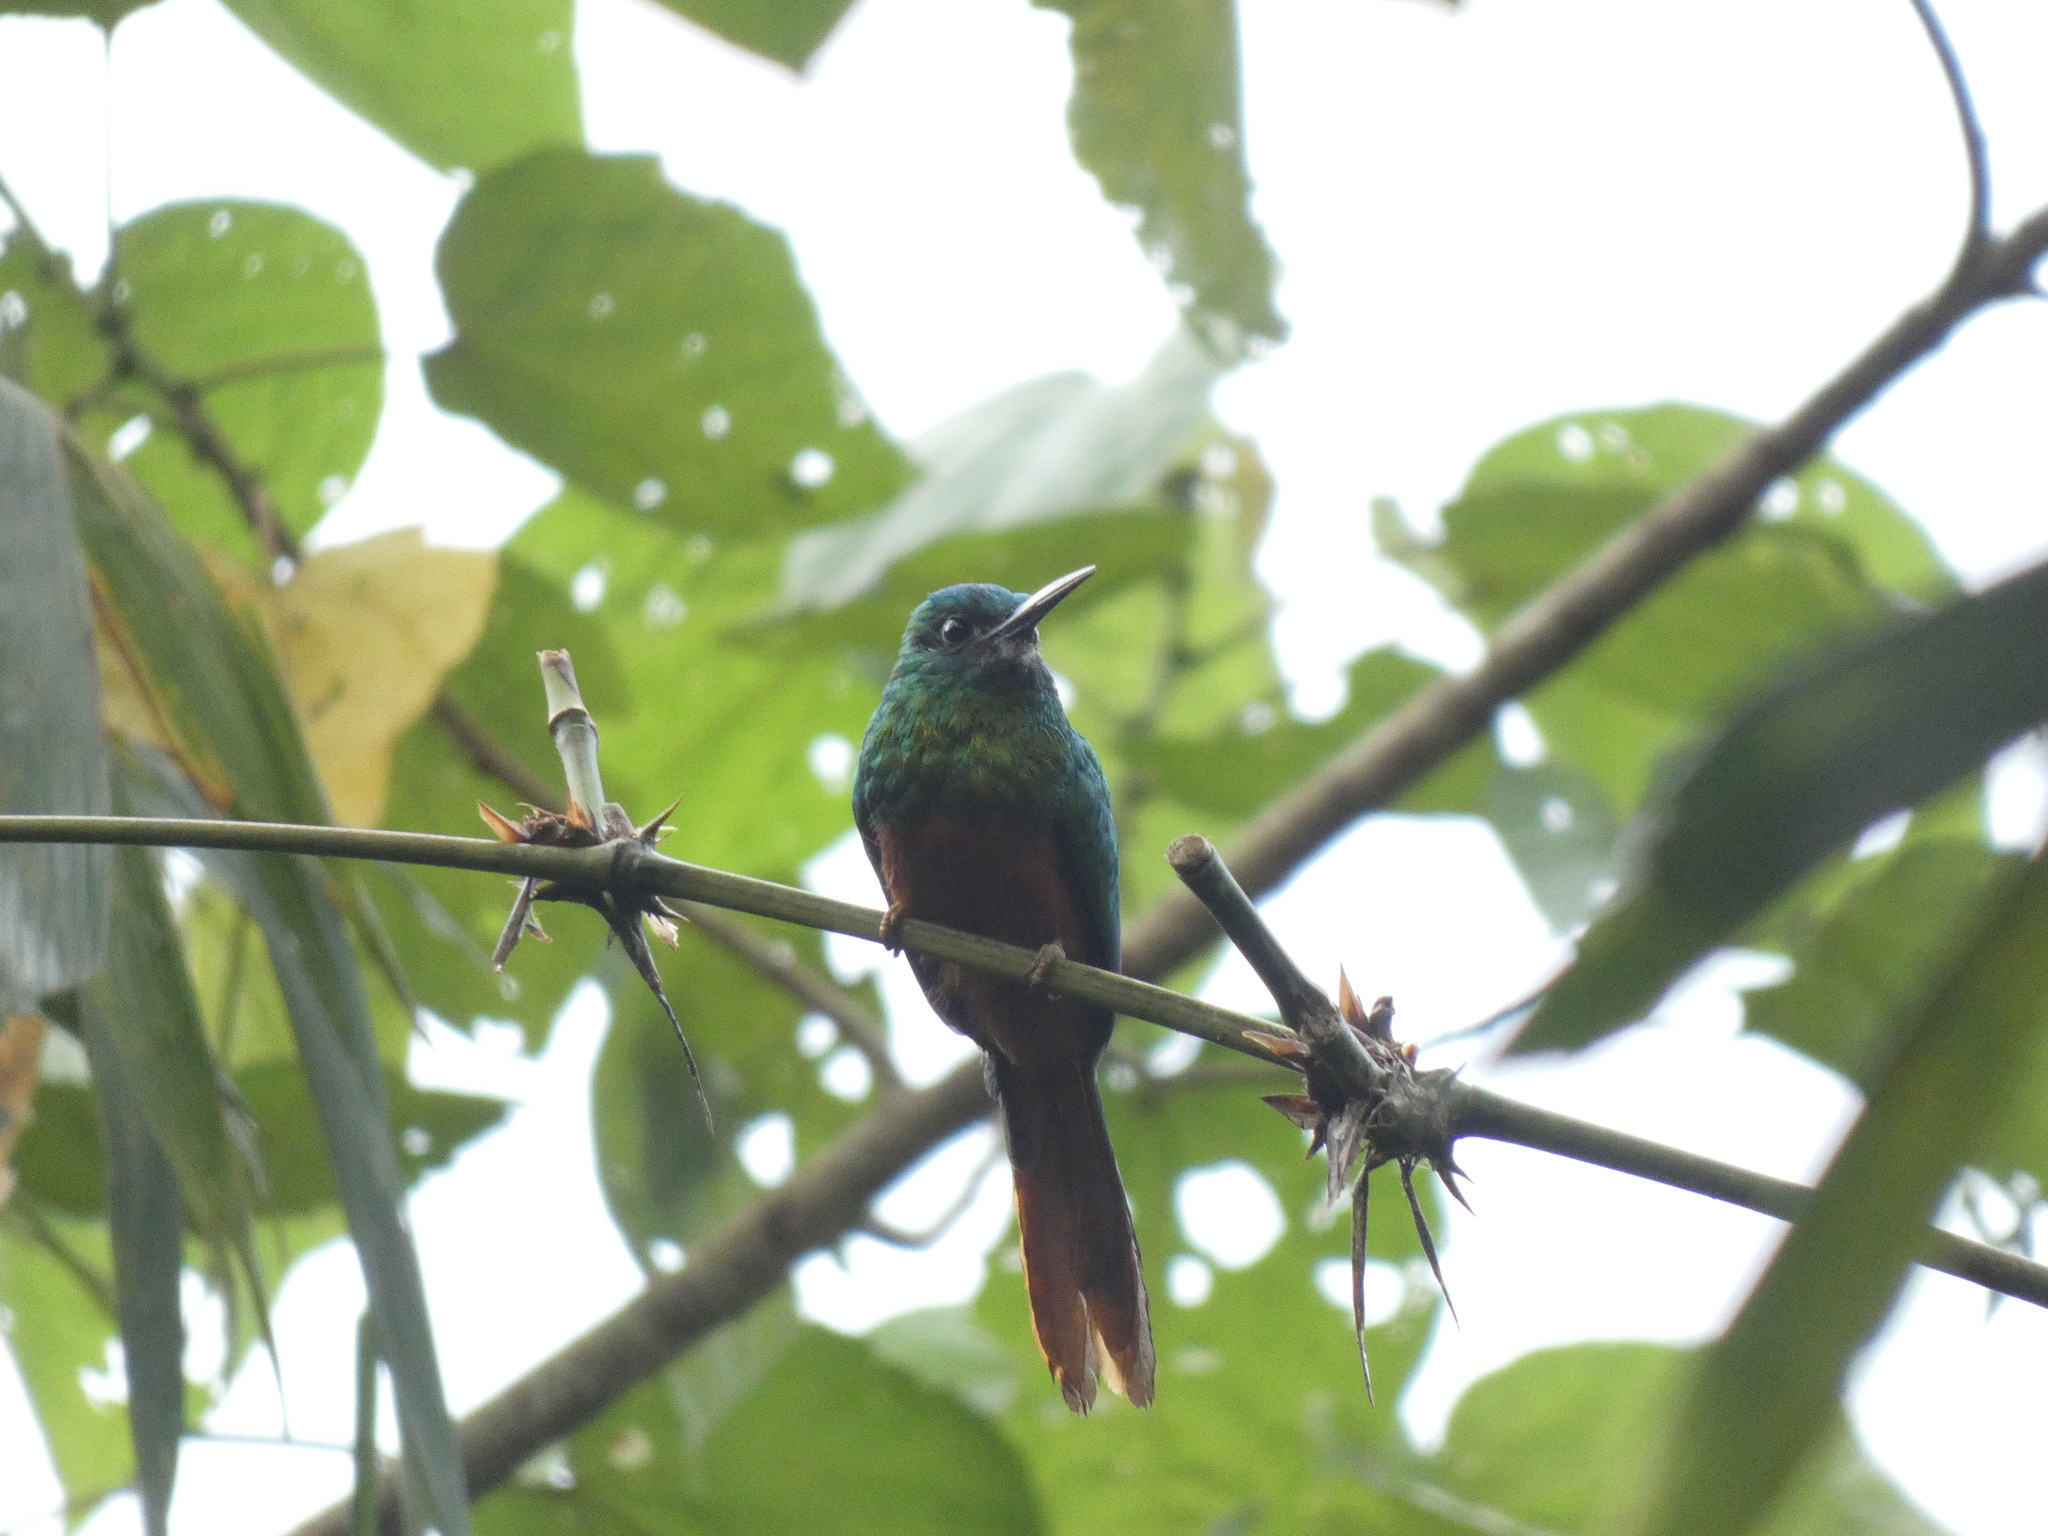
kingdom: Animalia
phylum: Chordata
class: Aves
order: Piciformes
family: Galbulidae
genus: Galbula
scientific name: Galbula cyanescens
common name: Bluish-fronted jacamar
